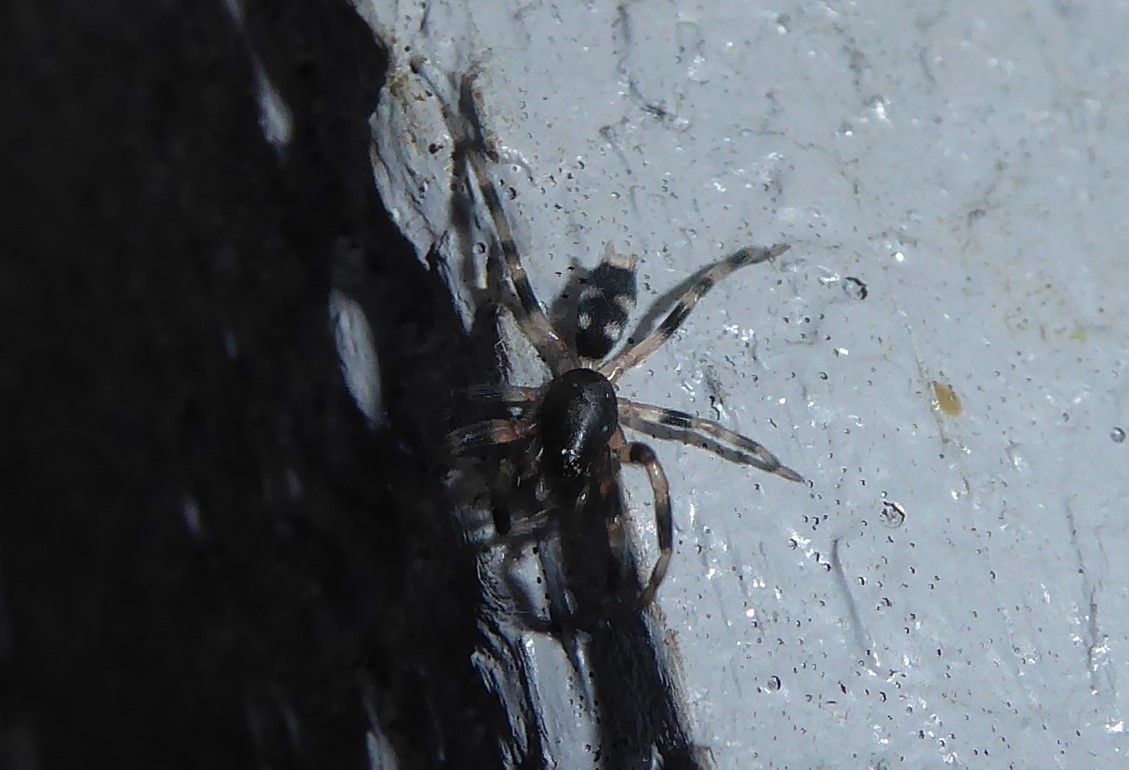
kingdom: Animalia
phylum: Arthropoda
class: Arachnida
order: Araneae
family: Lamponidae
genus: Lampona
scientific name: Lampona cylindrata
